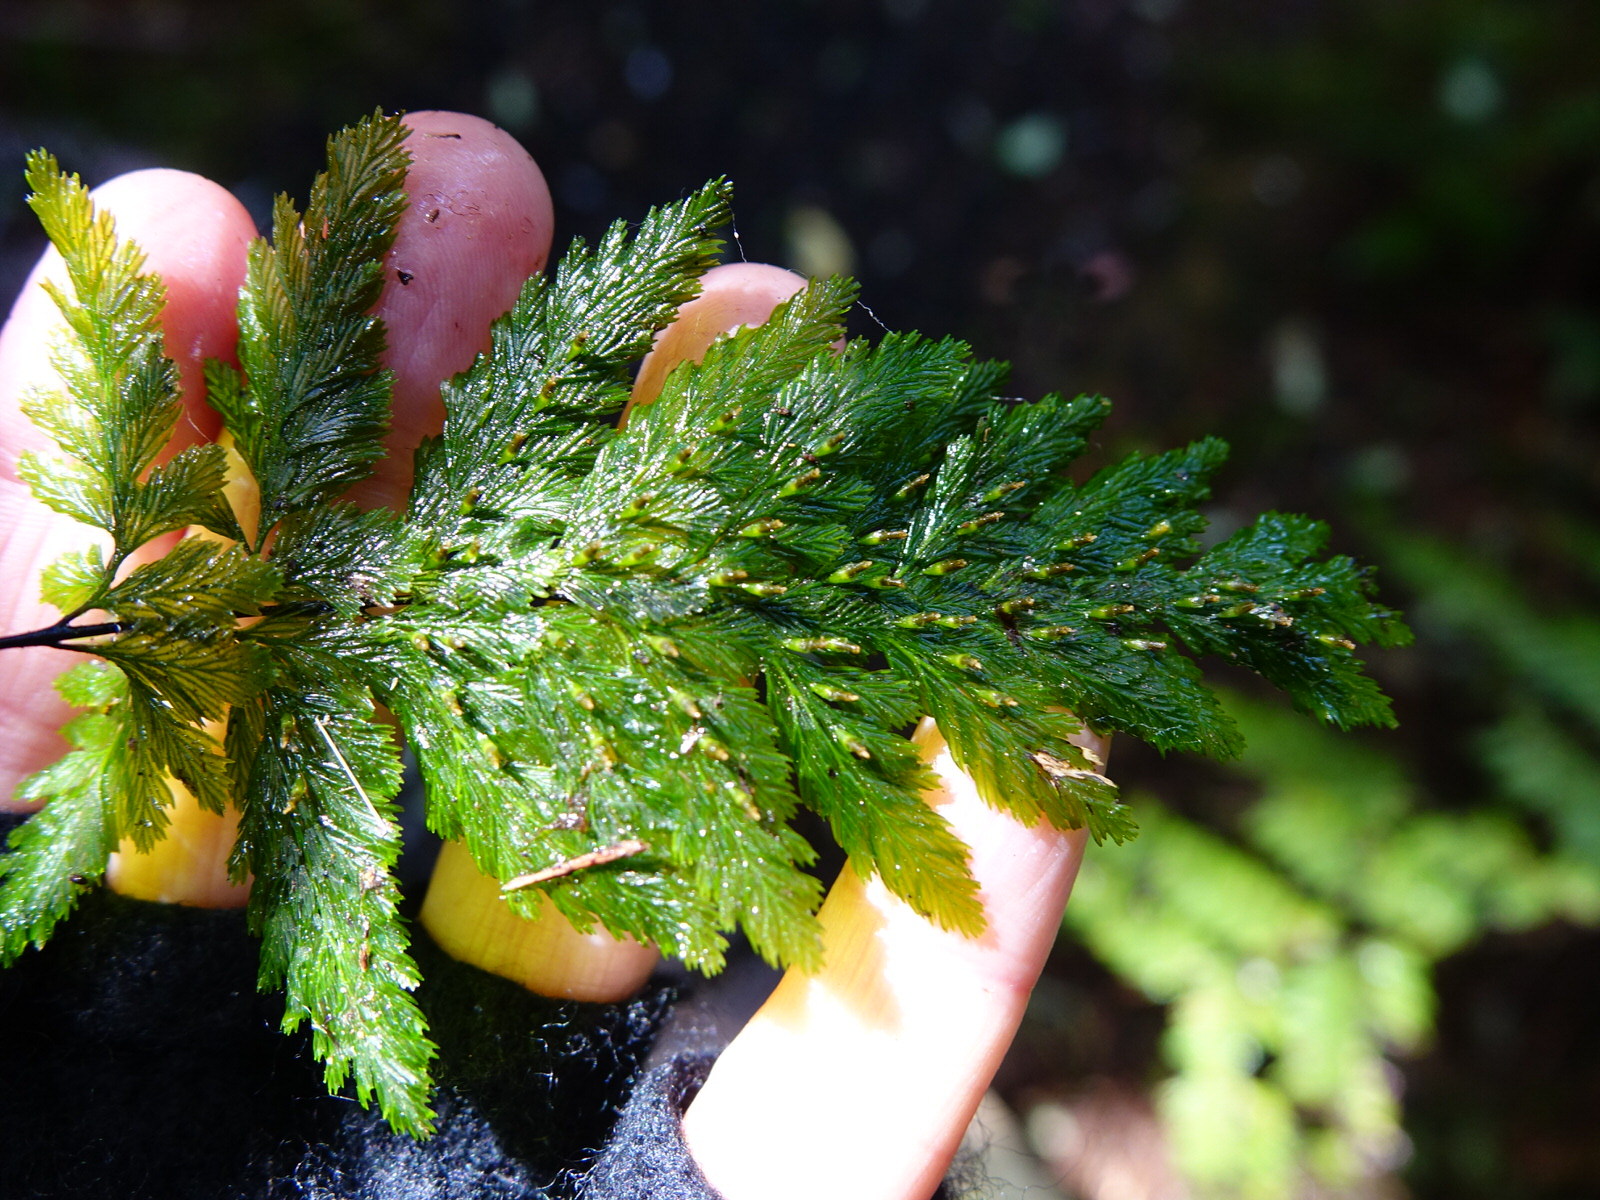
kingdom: Plantae
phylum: Tracheophyta
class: Polypodiopsida
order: Hymenophyllales
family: Hymenophyllaceae
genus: Abrodictyum
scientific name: Abrodictyum elongatum
